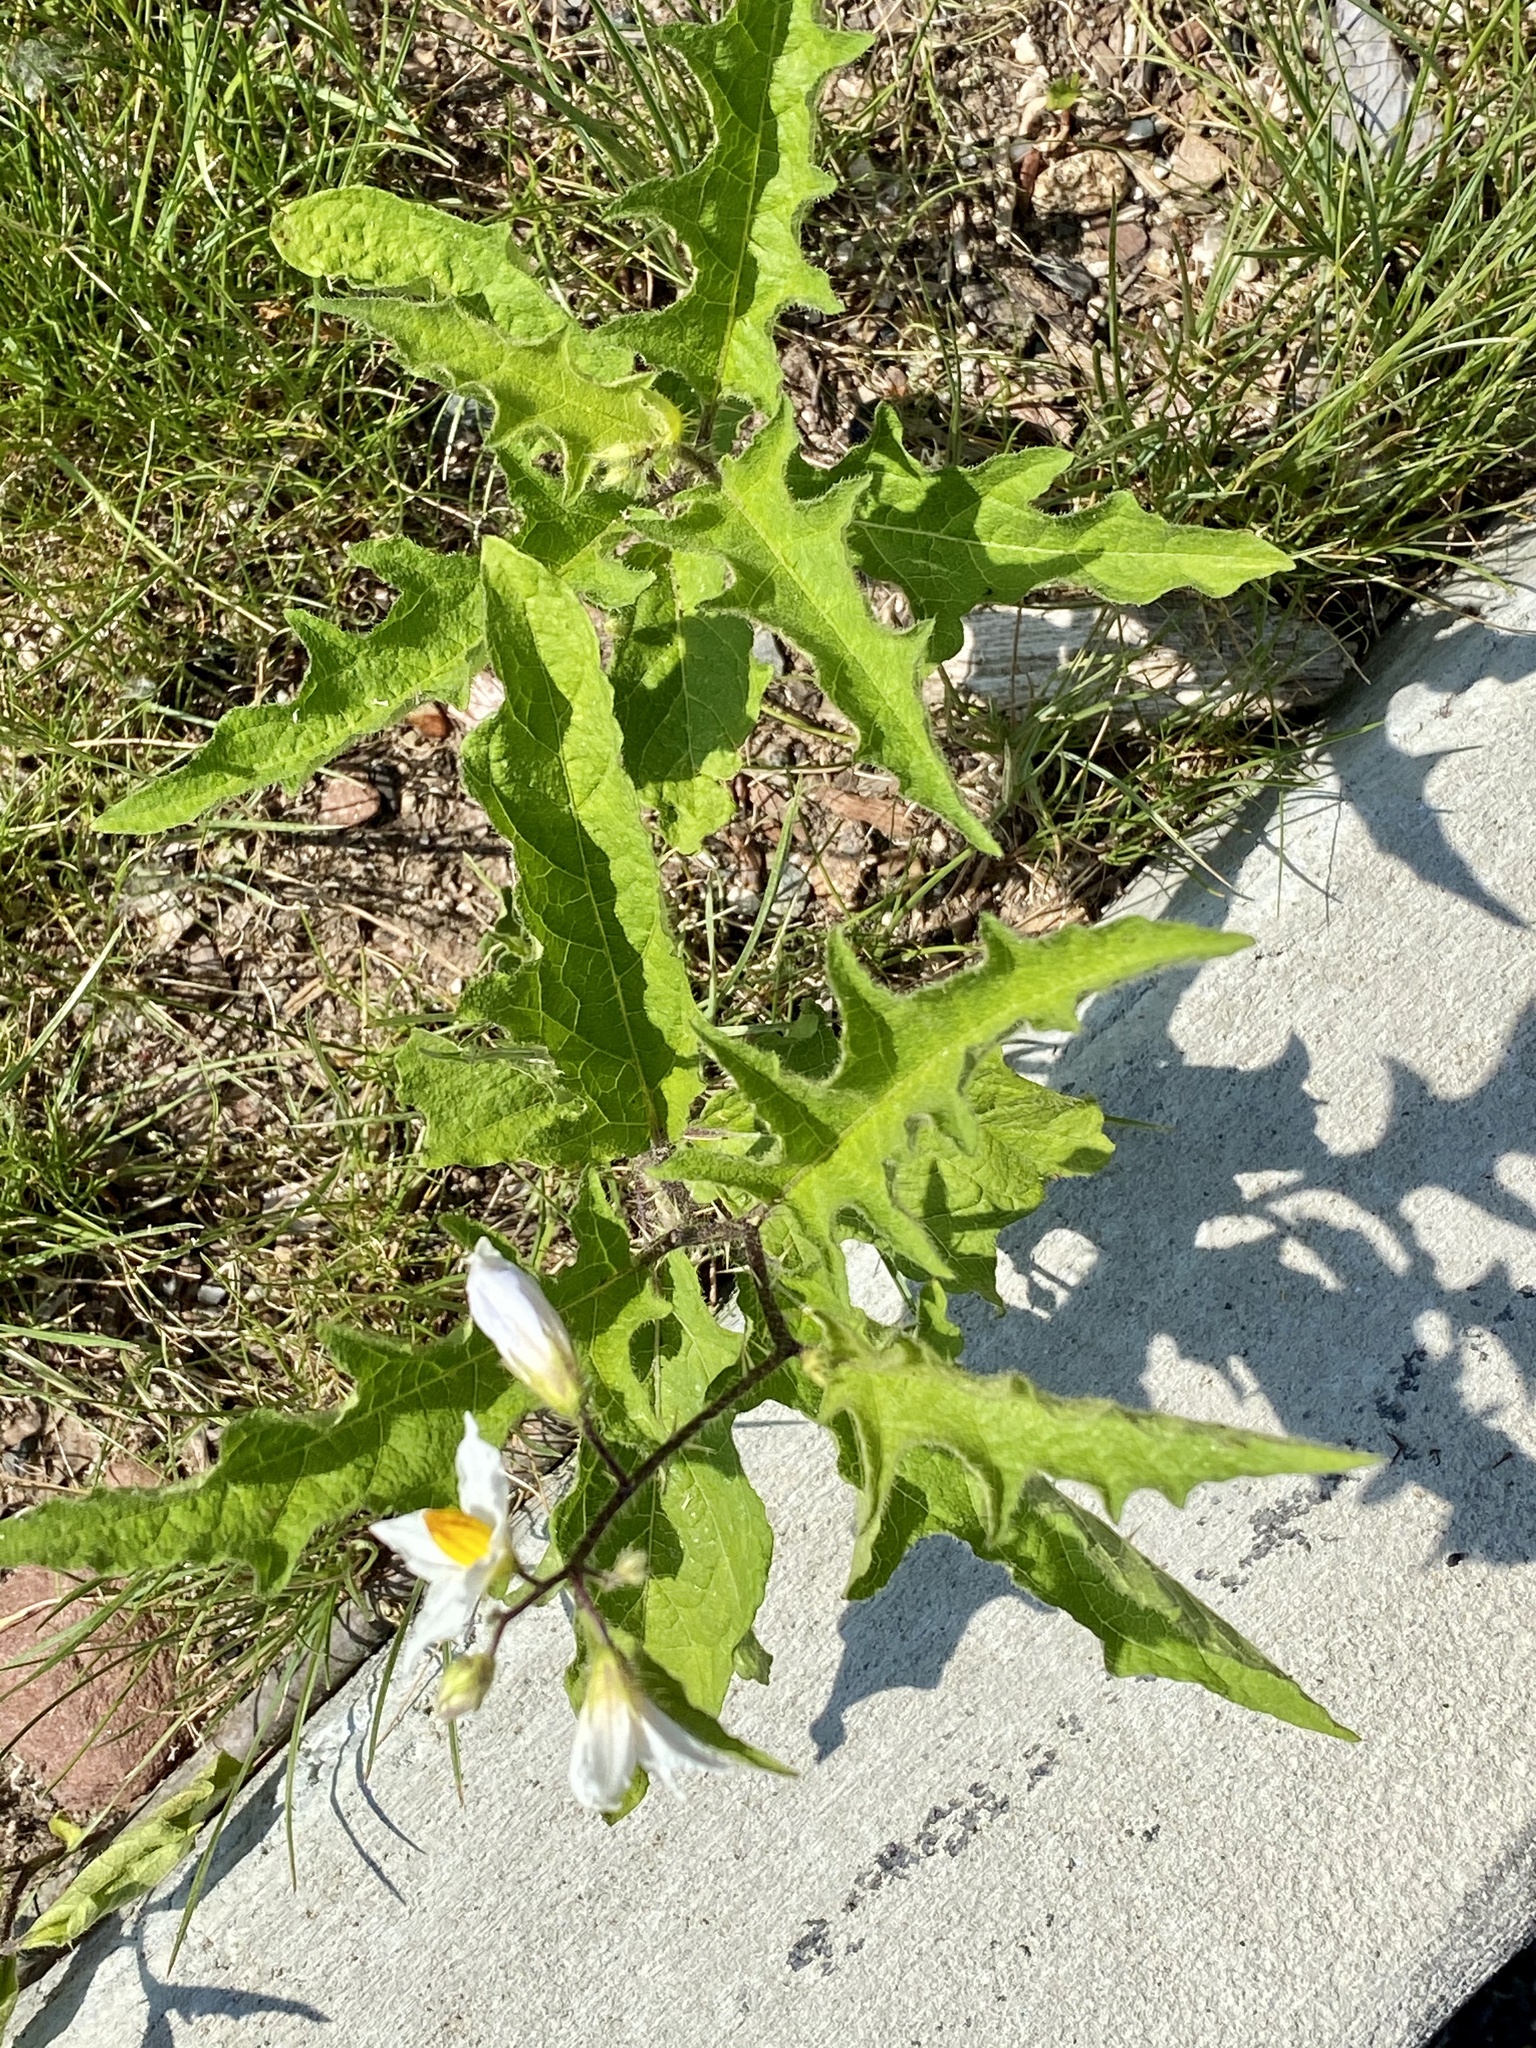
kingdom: Plantae
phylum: Tracheophyta
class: Magnoliopsida
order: Solanales
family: Solanaceae
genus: Solanum
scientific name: Solanum carolinense
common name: Horse-nettle
